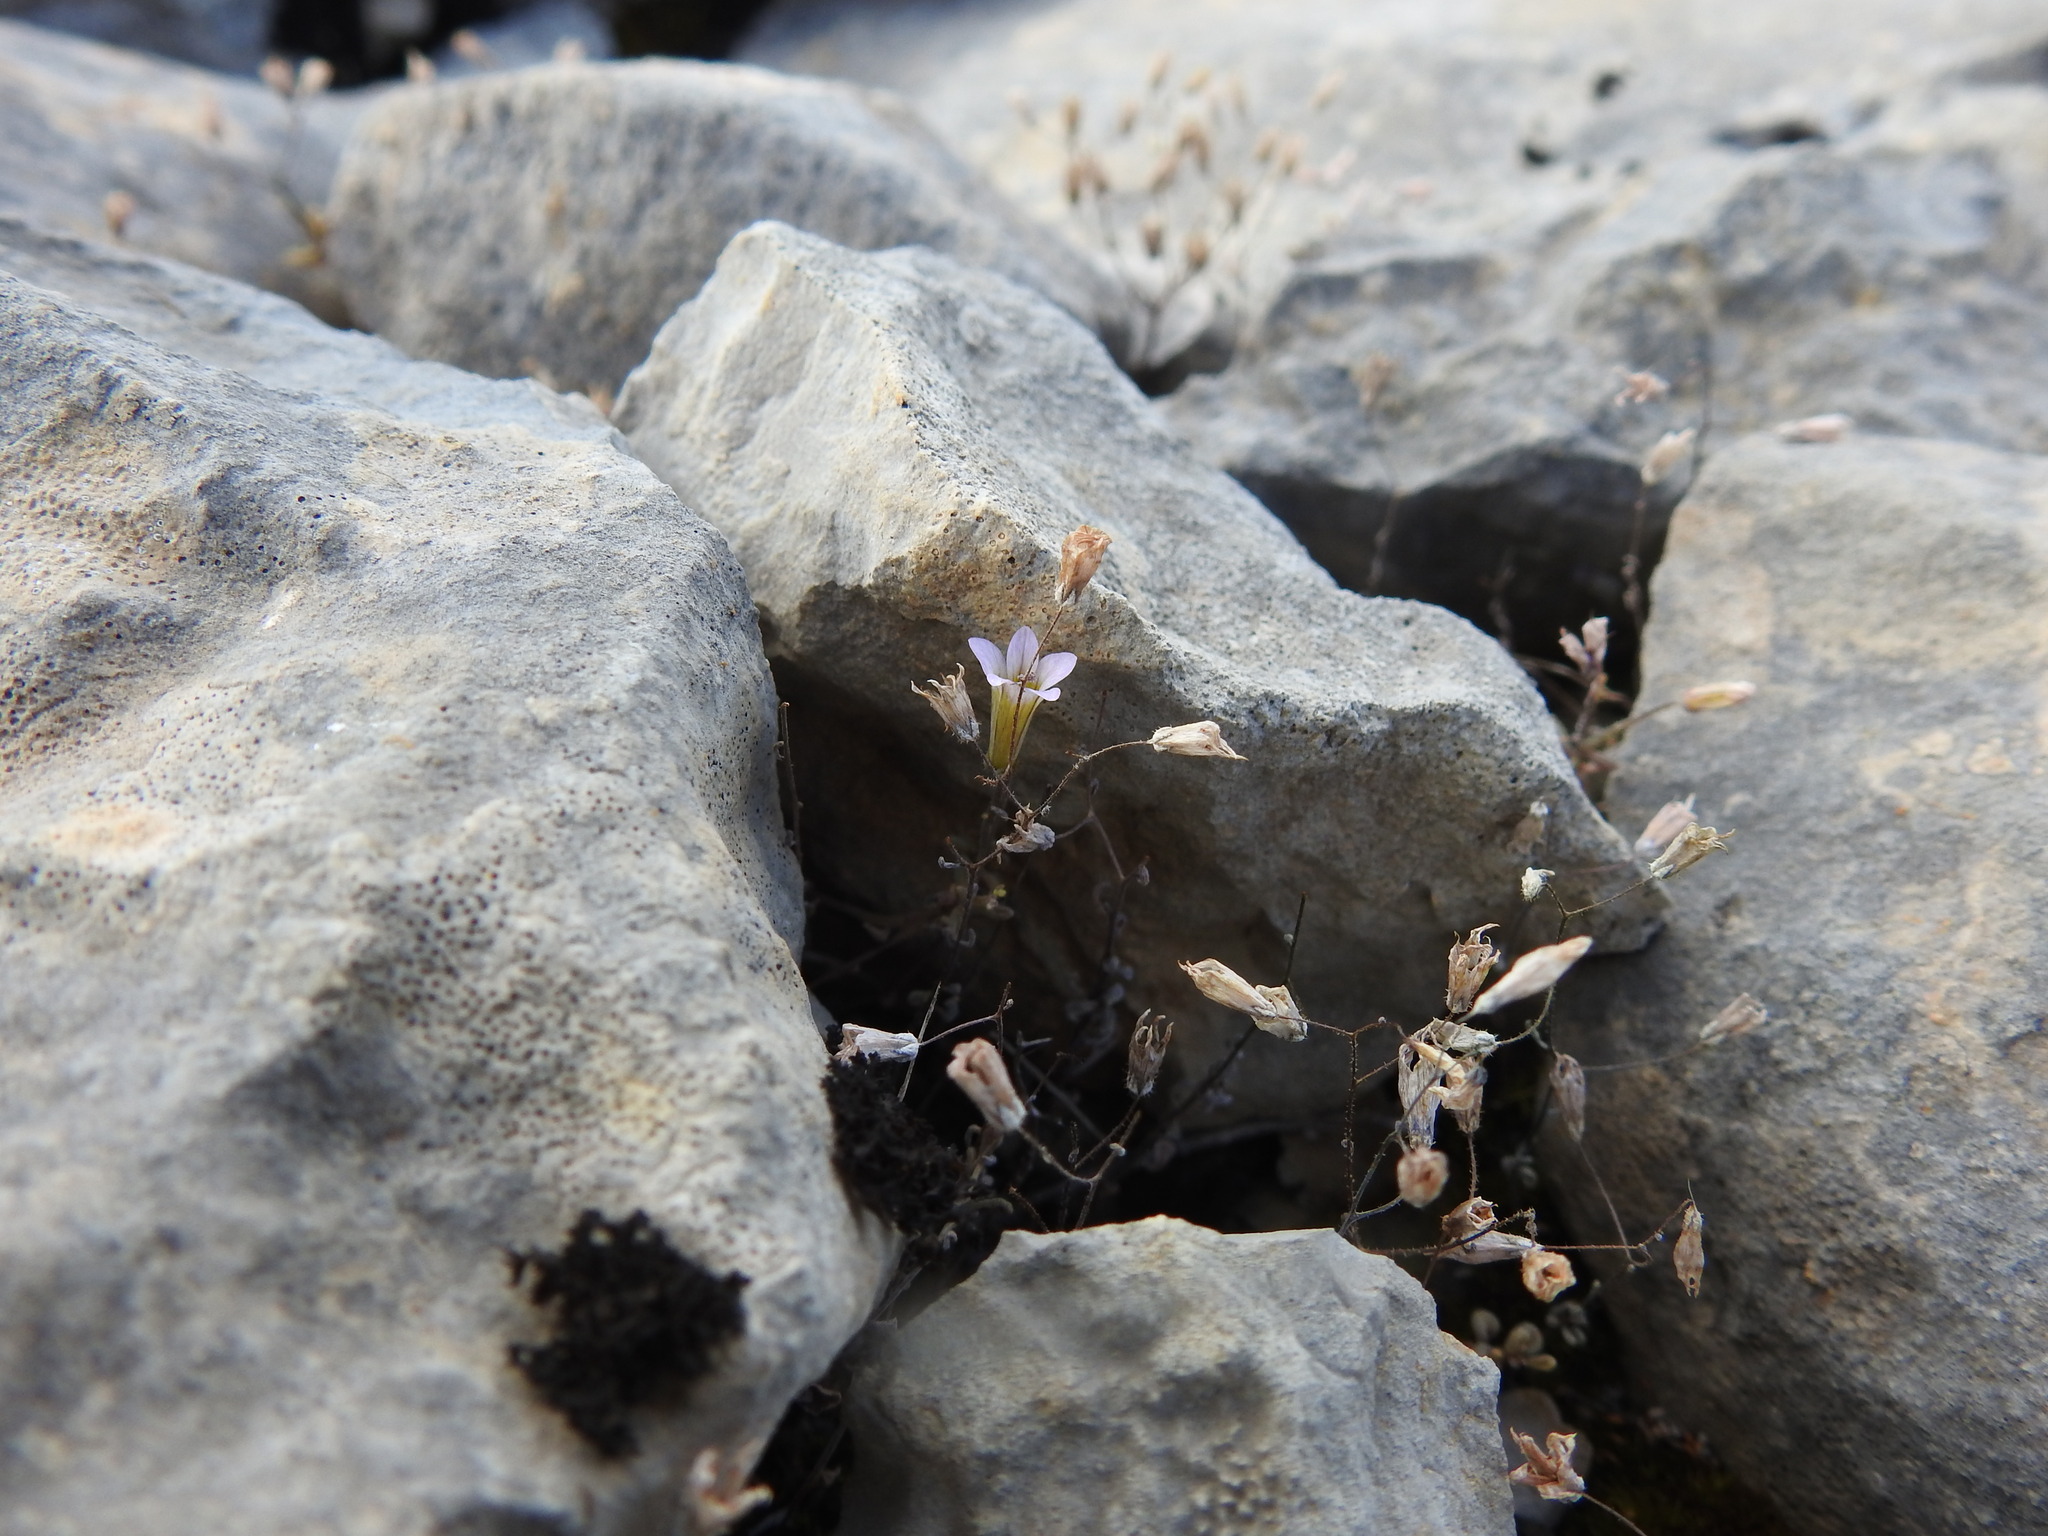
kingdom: Plantae
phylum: Tracheophyta
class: Magnoliopsida
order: Saxifragales
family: Crassulaceae
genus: Sedum
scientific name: Sedum mucizonia
